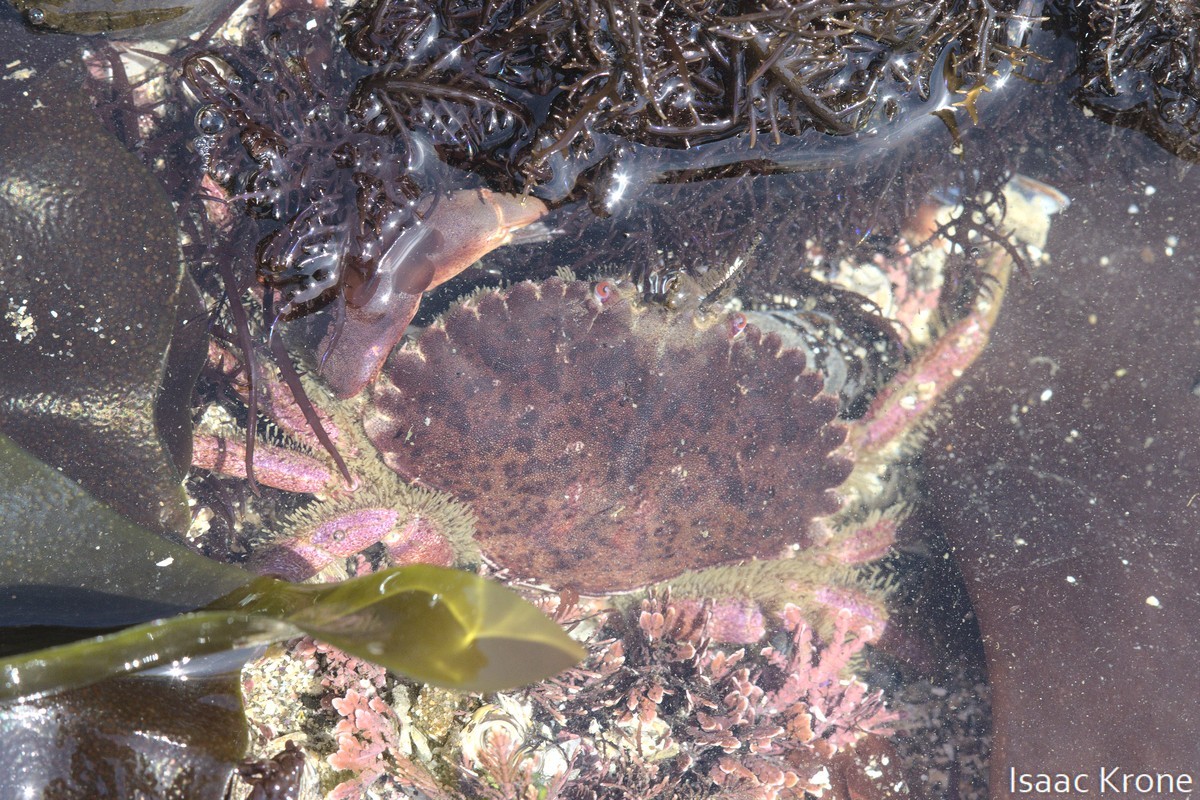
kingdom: Animalia
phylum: Arthropoda
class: Malacostraca
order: Decapoda
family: Cancridae
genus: Romaleon
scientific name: Romaleon antennarium
